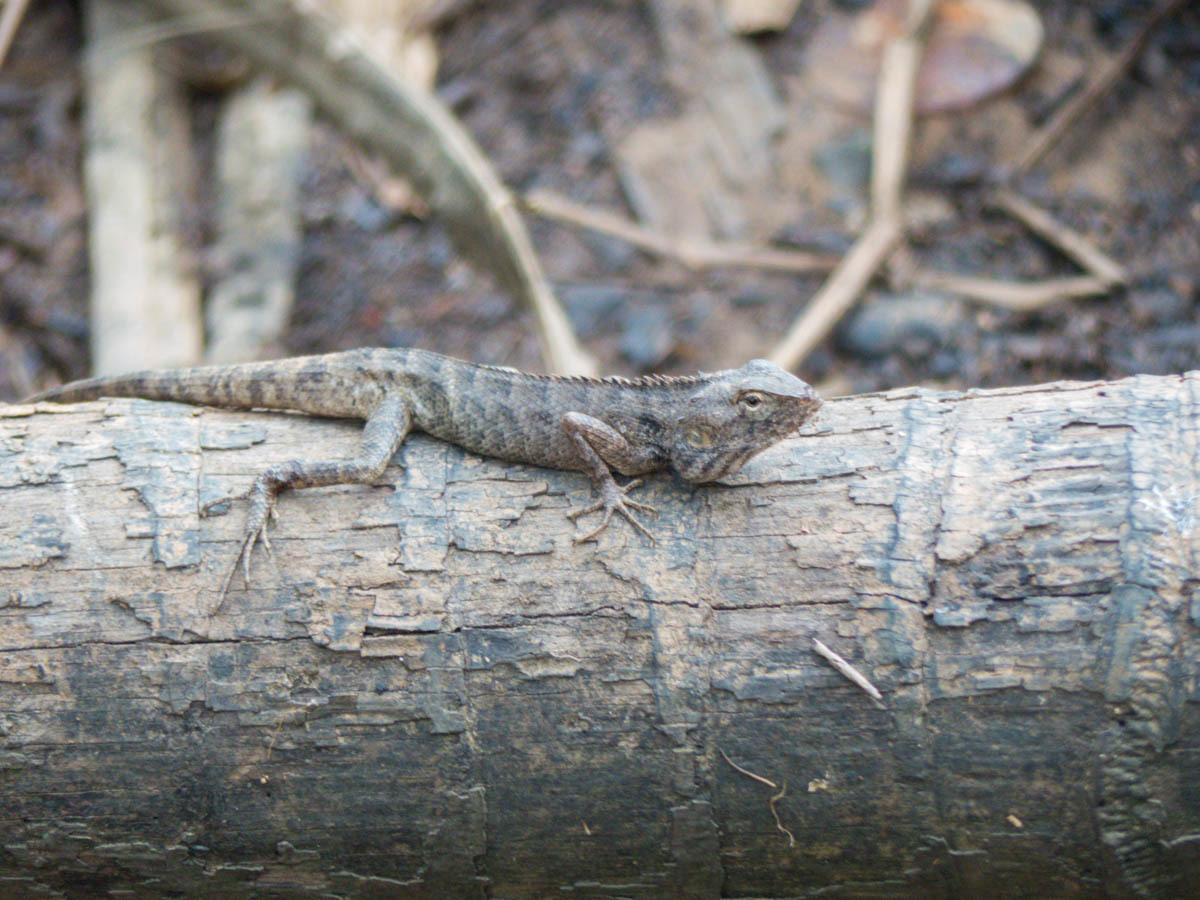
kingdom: Animalia
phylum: Chordata
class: Squamata
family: Agamidae
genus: Calotes
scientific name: Calotes versicolor
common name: Oriental garden lizard
